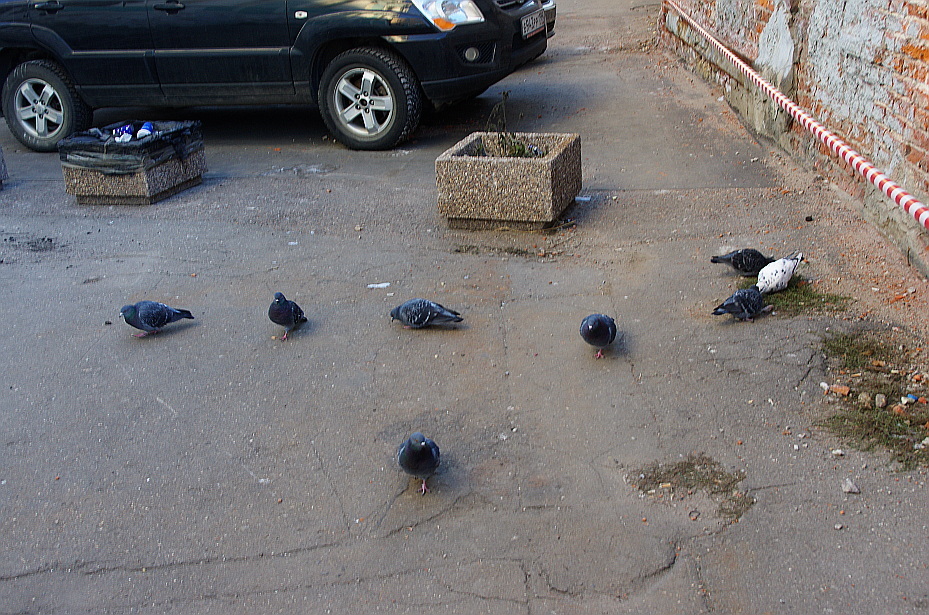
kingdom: Animalia
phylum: Chordata
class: Aves
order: Columbiformes
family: Columbidae
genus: Columba
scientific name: Columba livia
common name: Rock pigeon
